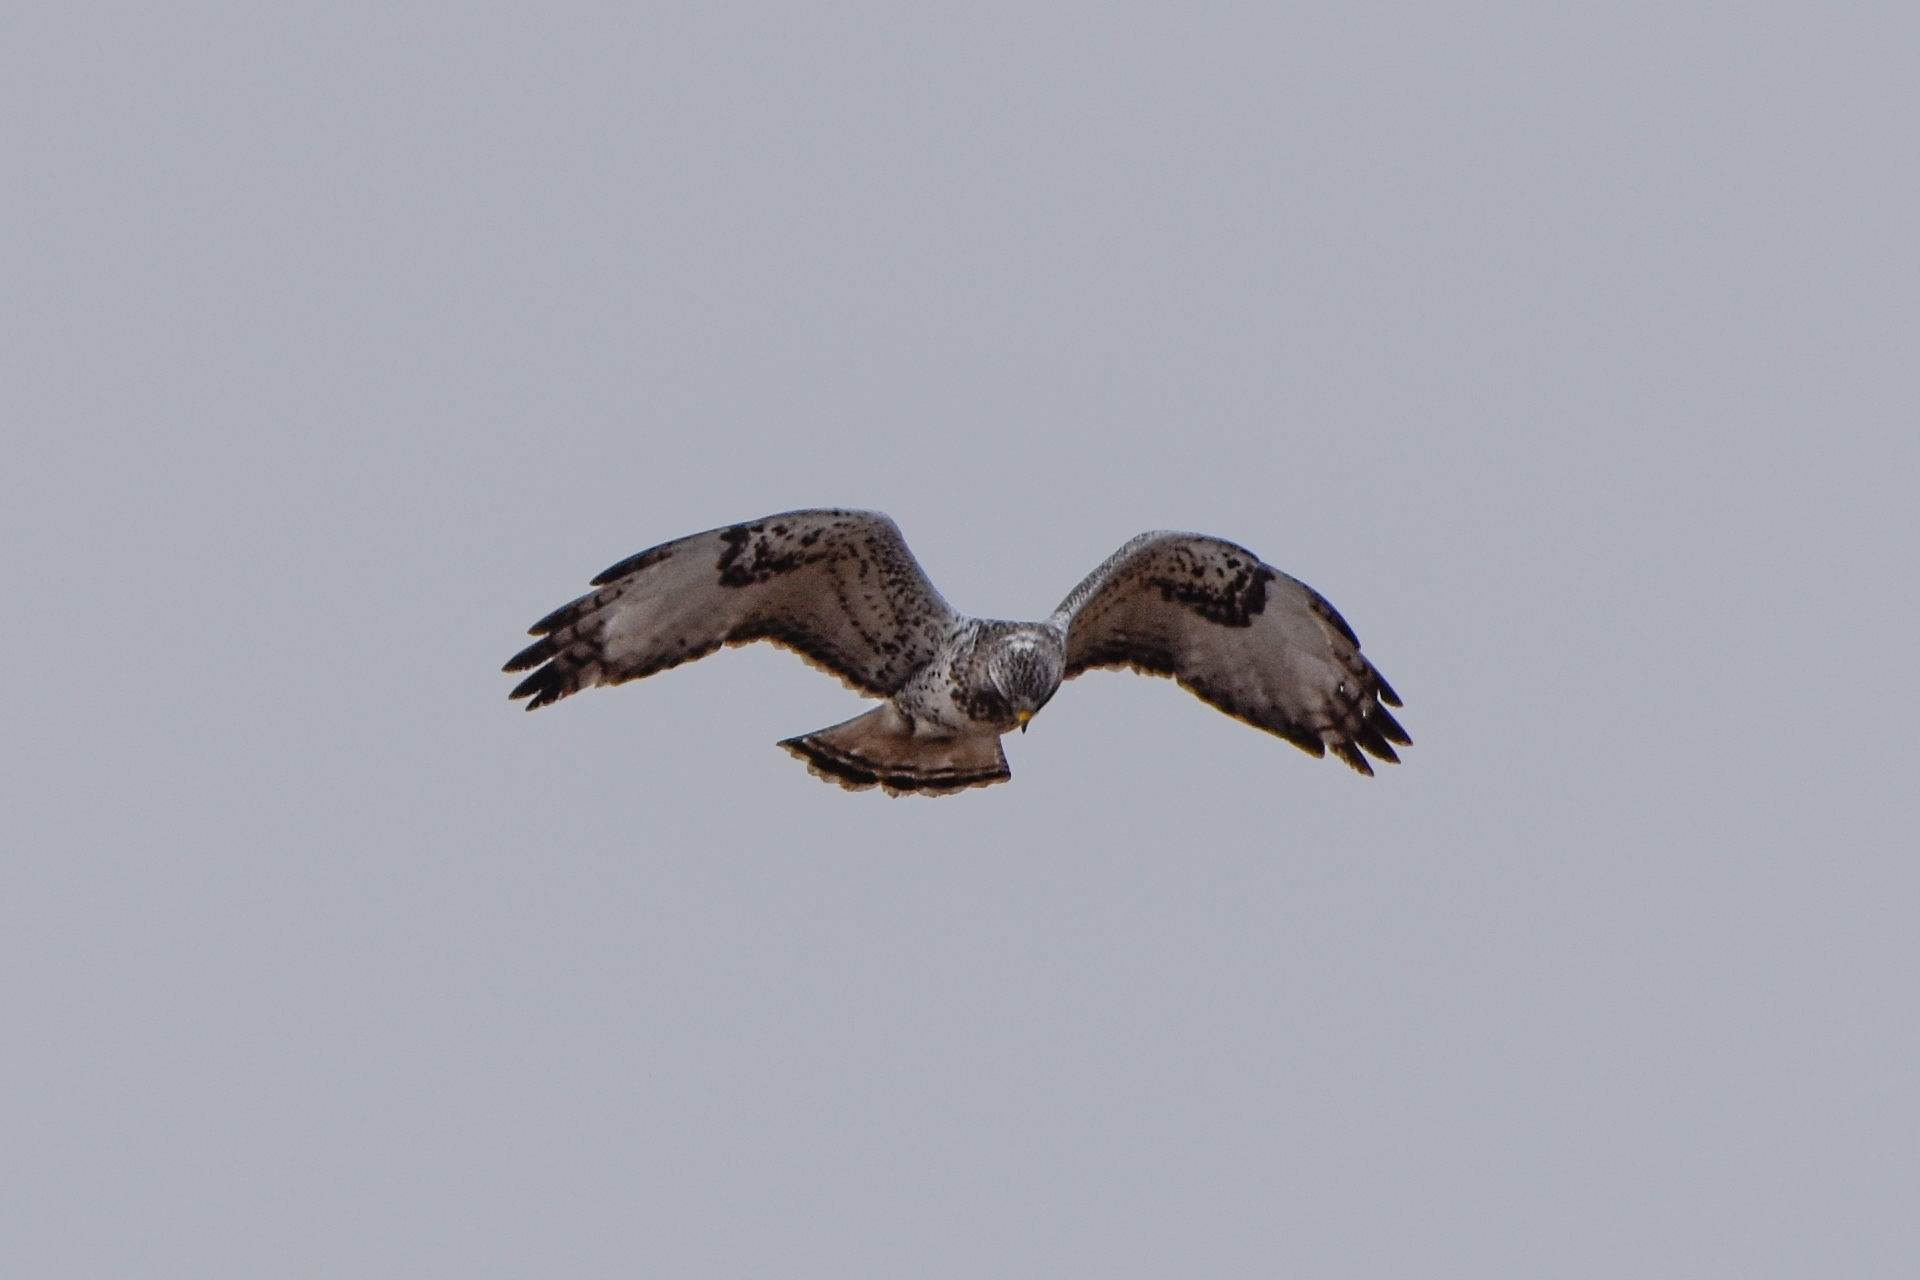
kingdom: Animalia
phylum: Chordata
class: Aves
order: Accipitriformes
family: Accipitridae
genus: Buteo
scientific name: Buteo lagopus
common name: Rough-legged buzzard
